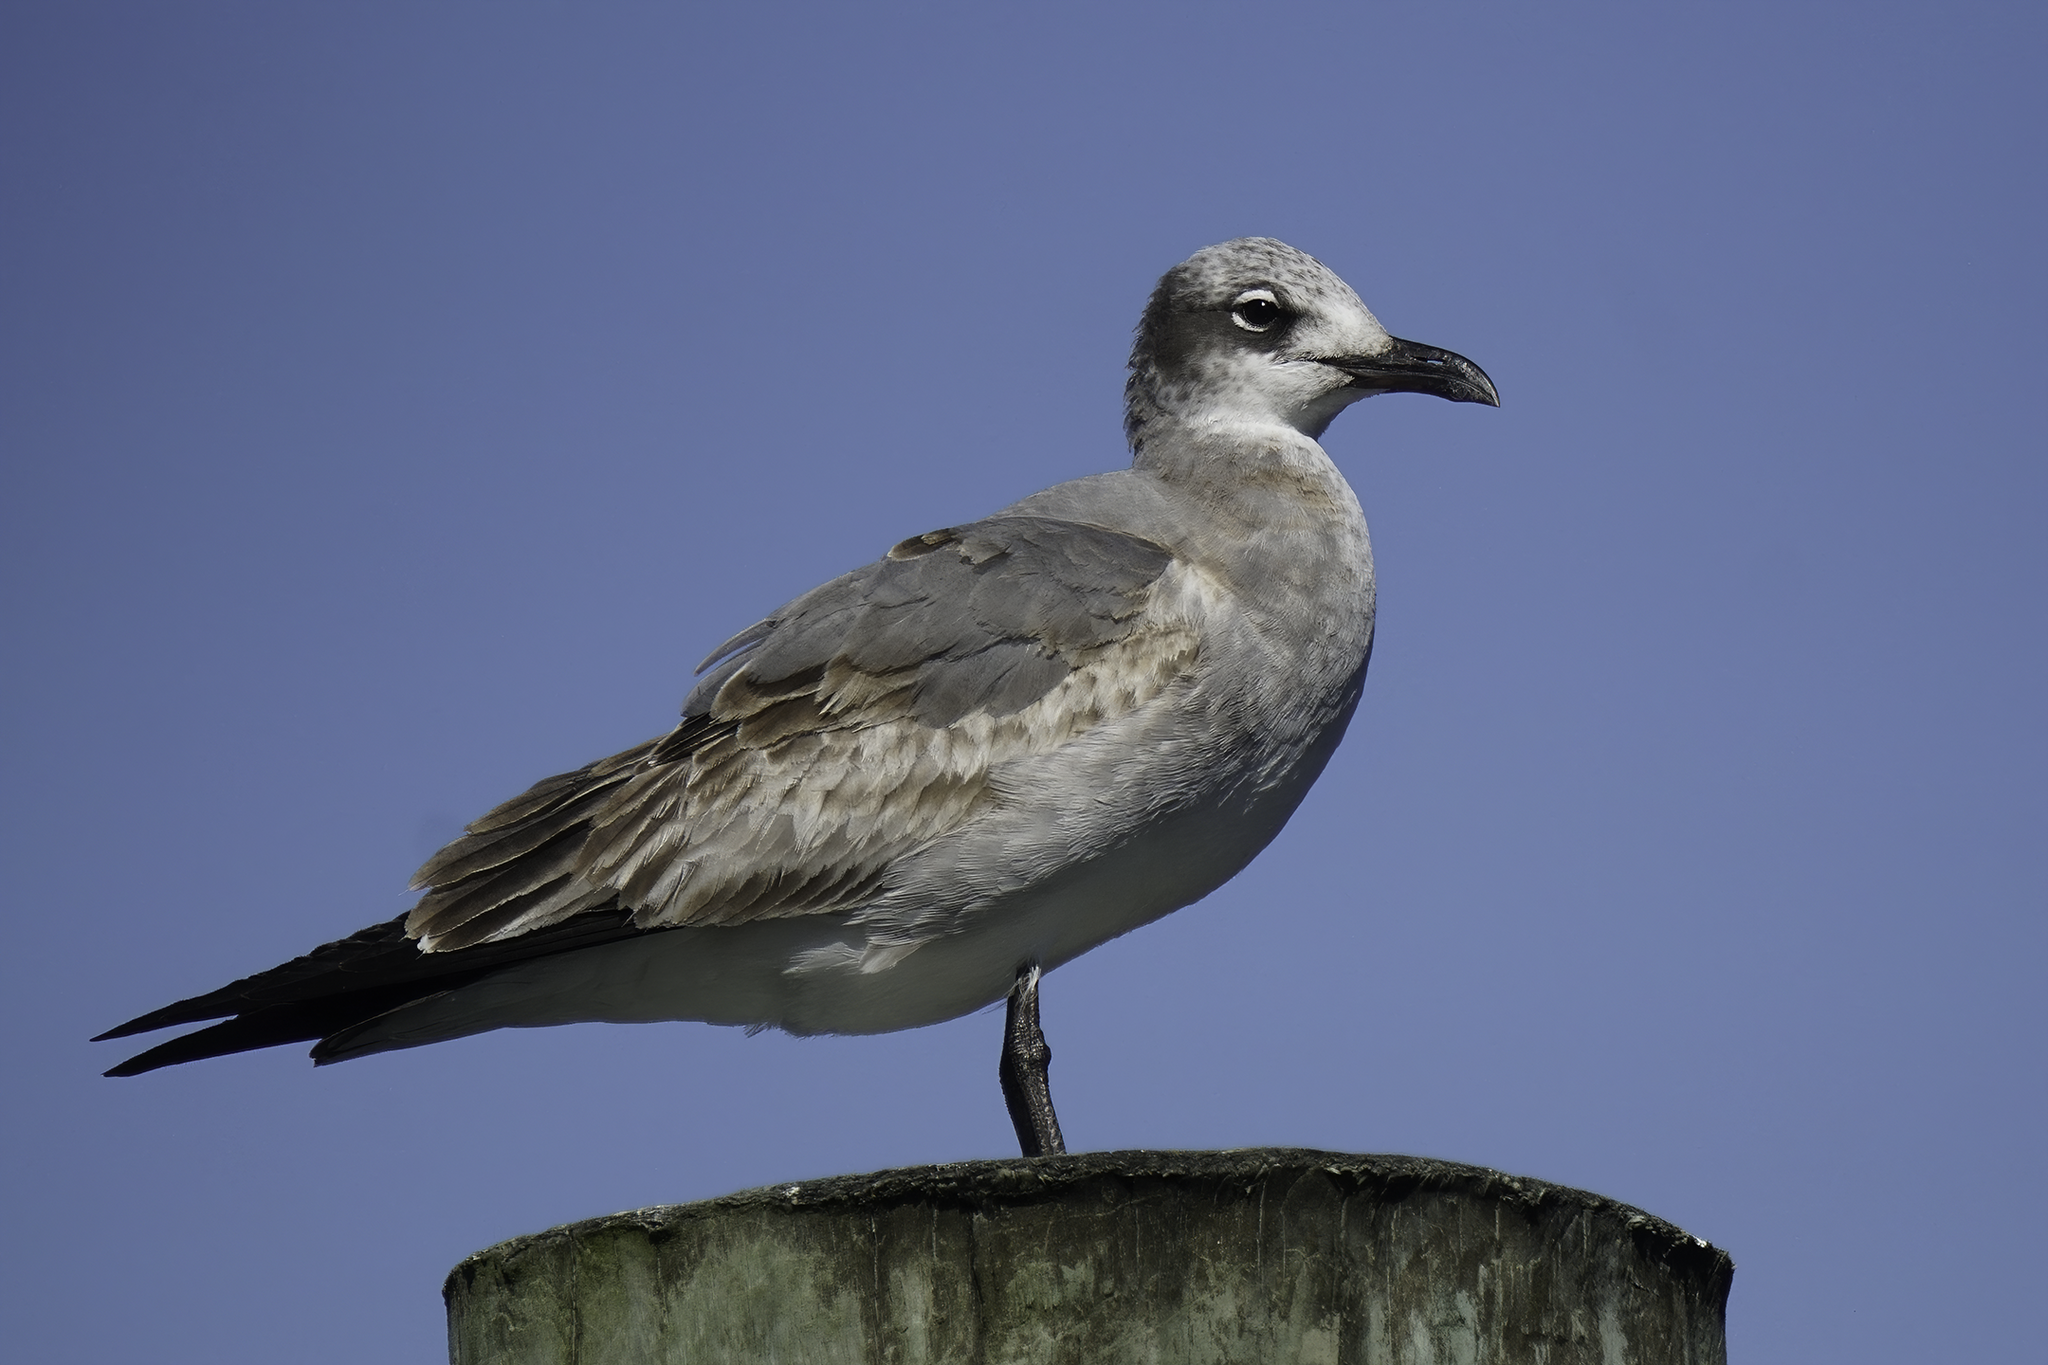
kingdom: Animalia
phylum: Chordata
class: Aves
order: Charadriiformes
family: Laridae
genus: Leucophaeus
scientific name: Leucophaeus atricilla
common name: Laughing gull
